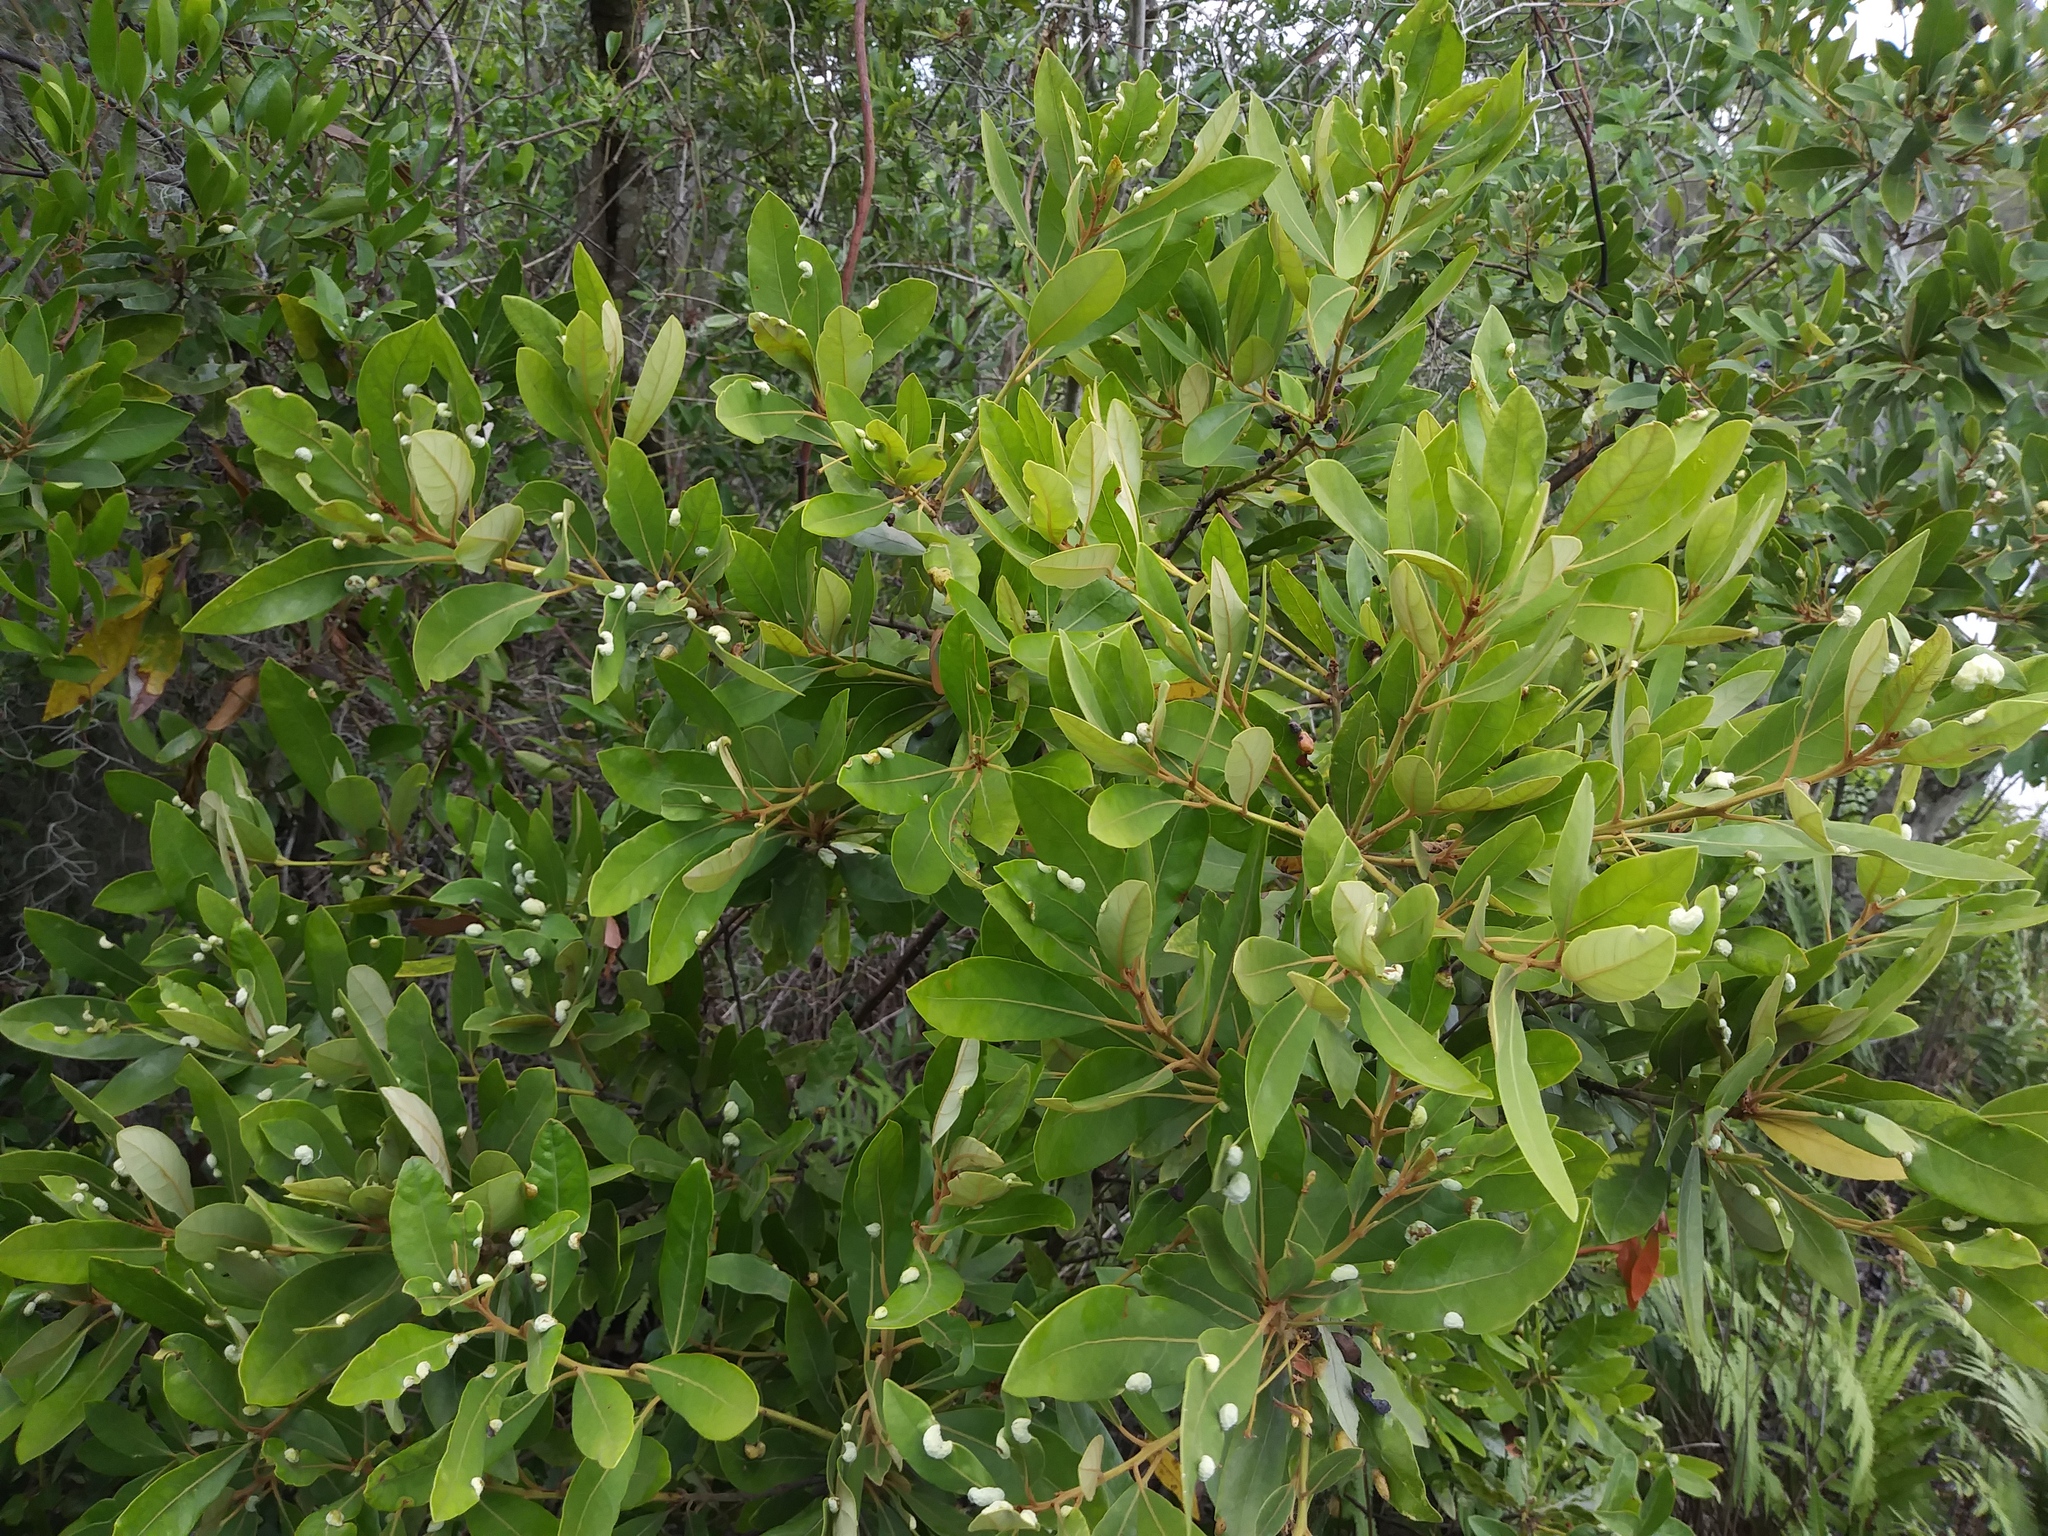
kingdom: Plantae
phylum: Tracheophyta
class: Magnoliopsida
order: Laurales
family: Lauraceae
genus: Persea
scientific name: Persea palustris
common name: Swampbay
